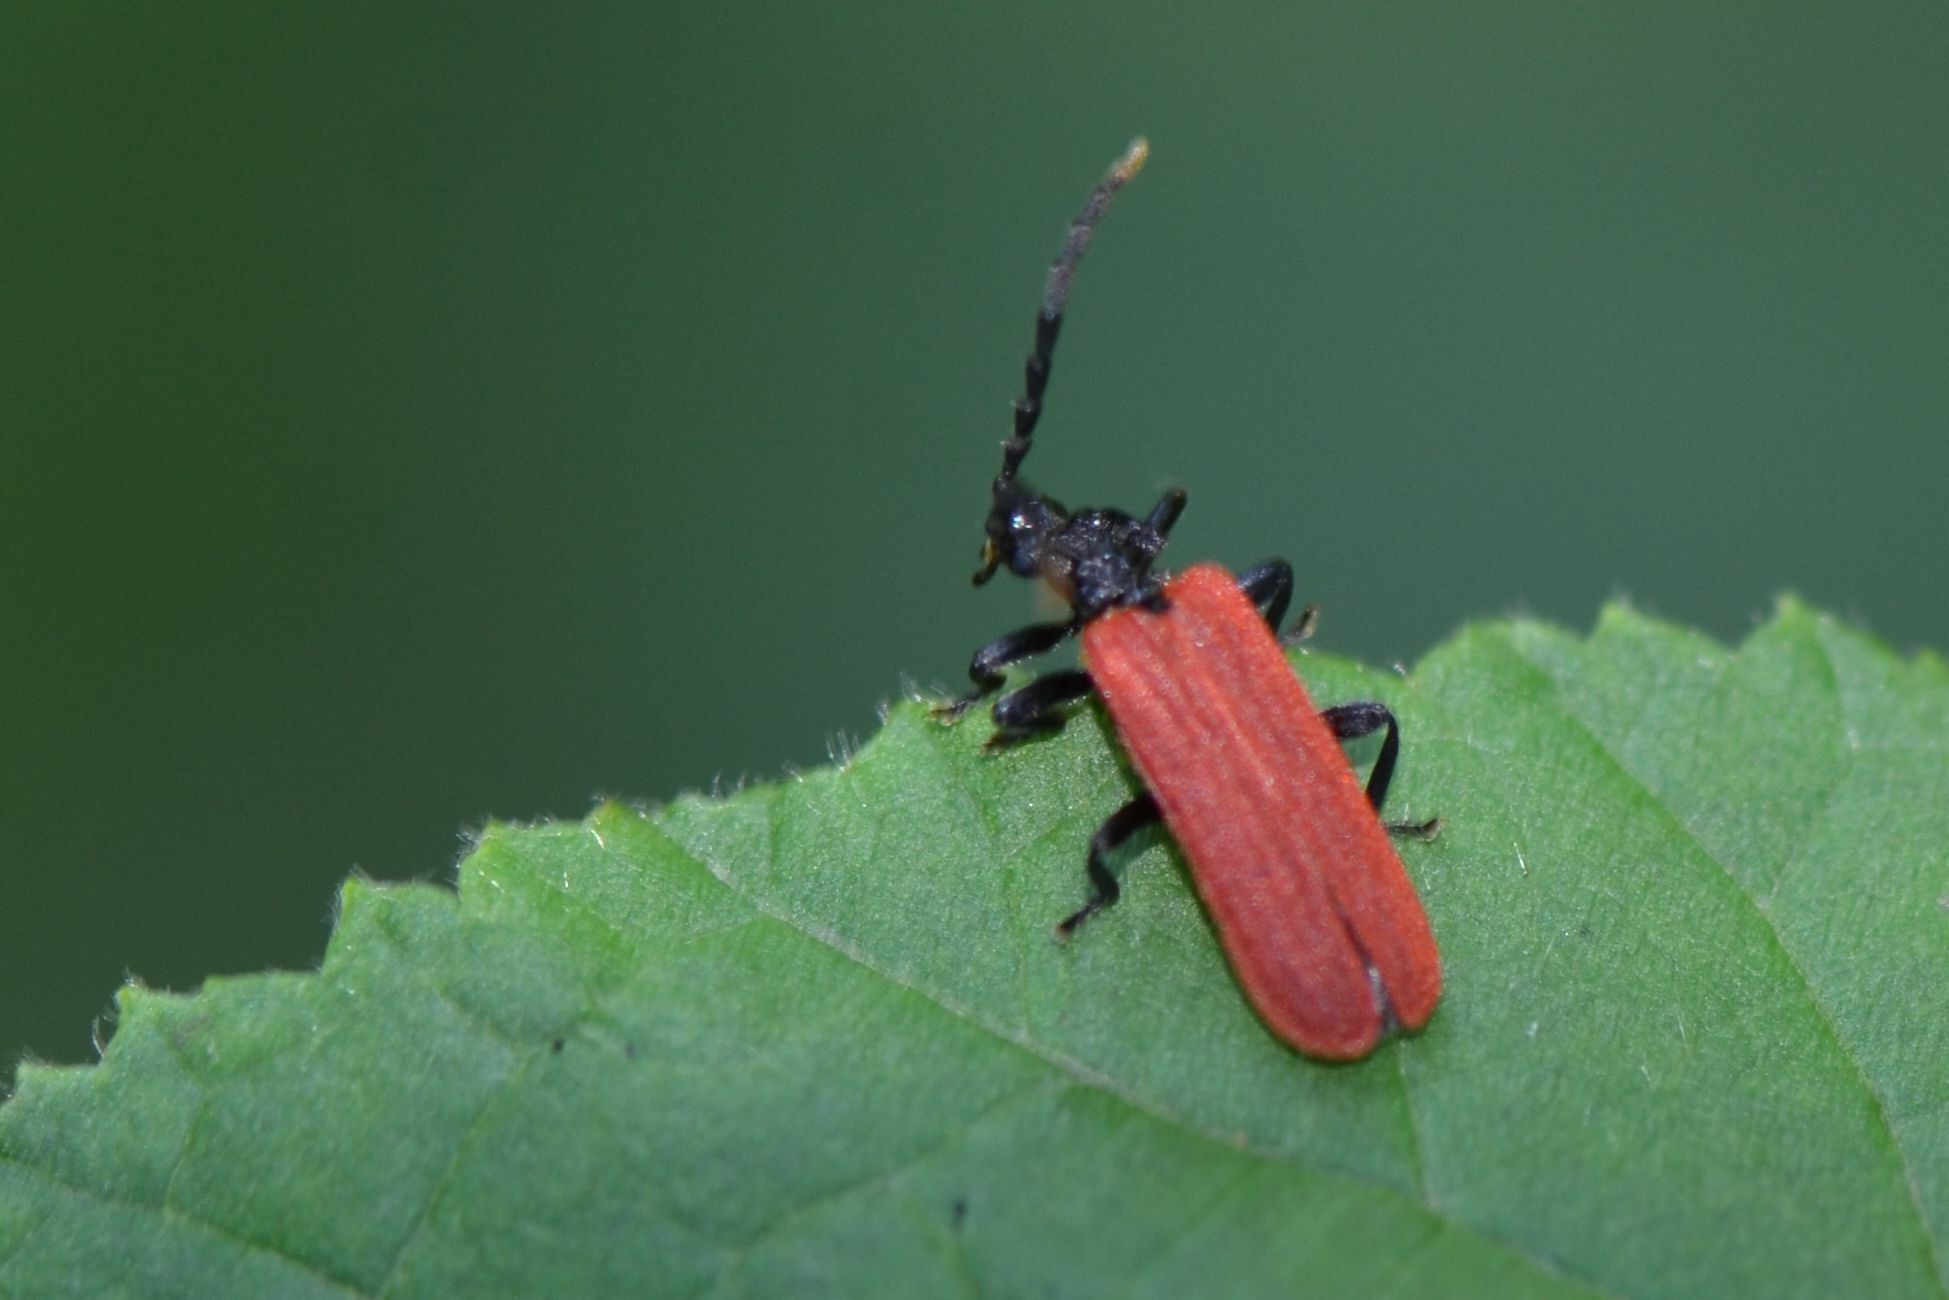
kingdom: Animalia
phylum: Arthropoda
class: Insecta
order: Coleoptera
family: Lycidae
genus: Platycis
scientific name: Platycis minutus
